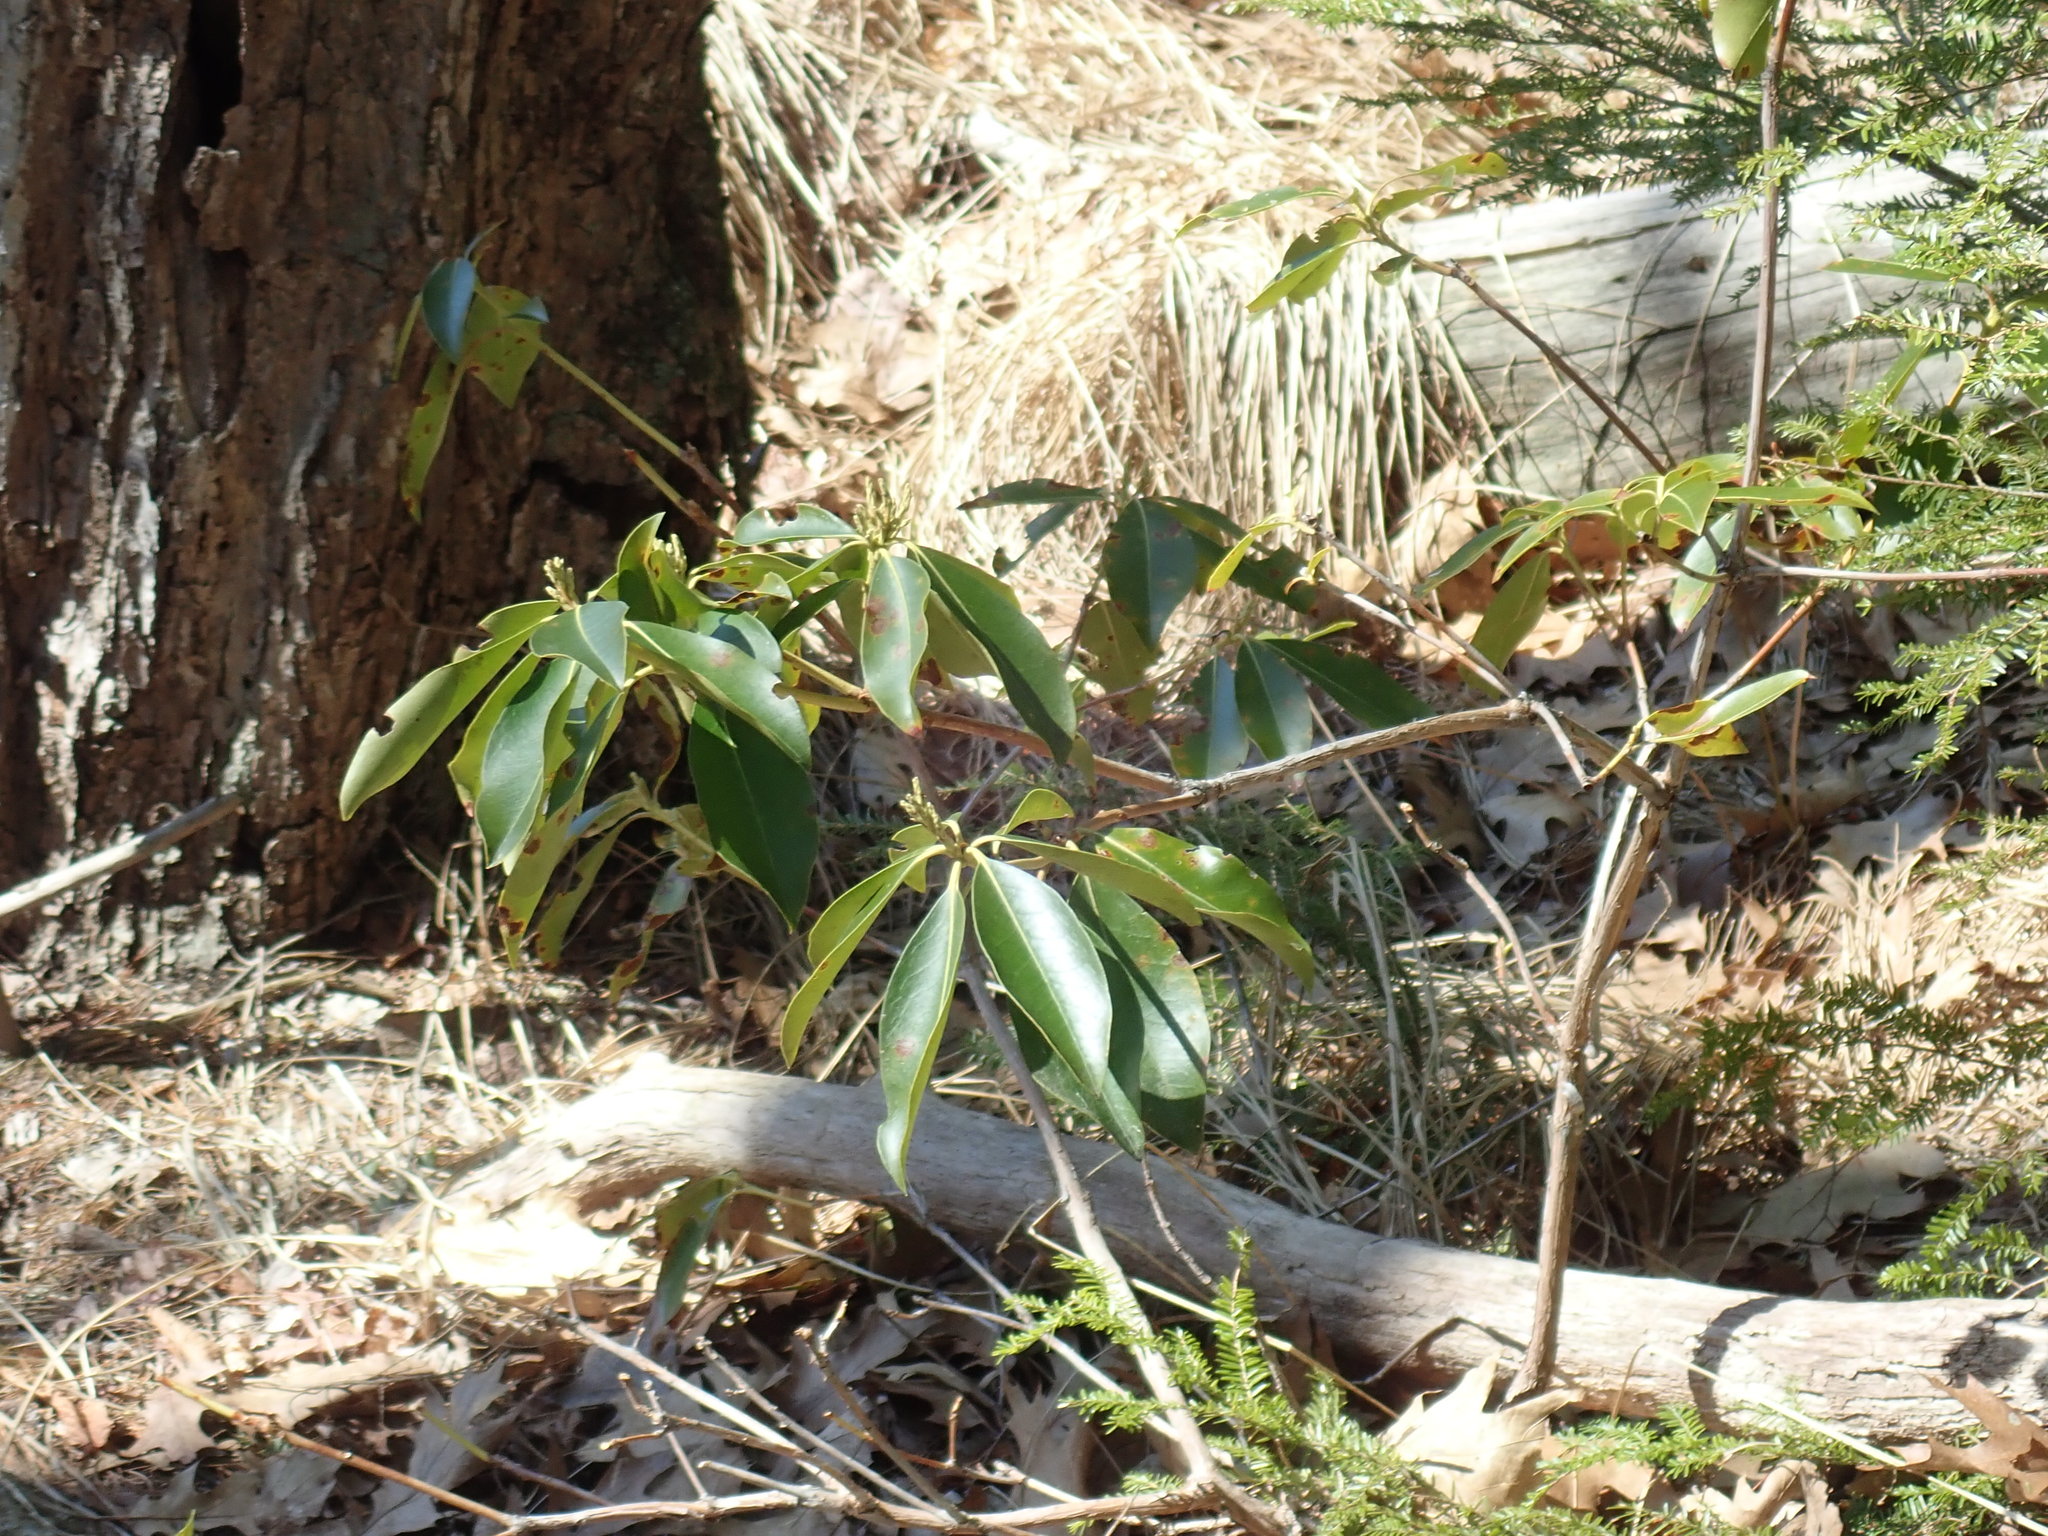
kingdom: Plantae
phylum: Tracheophyta
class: Magnoliopsida
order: Ericales
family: Ericaceae
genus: Kalmia
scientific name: Kalmia latifolia
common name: Mountain-laurel
